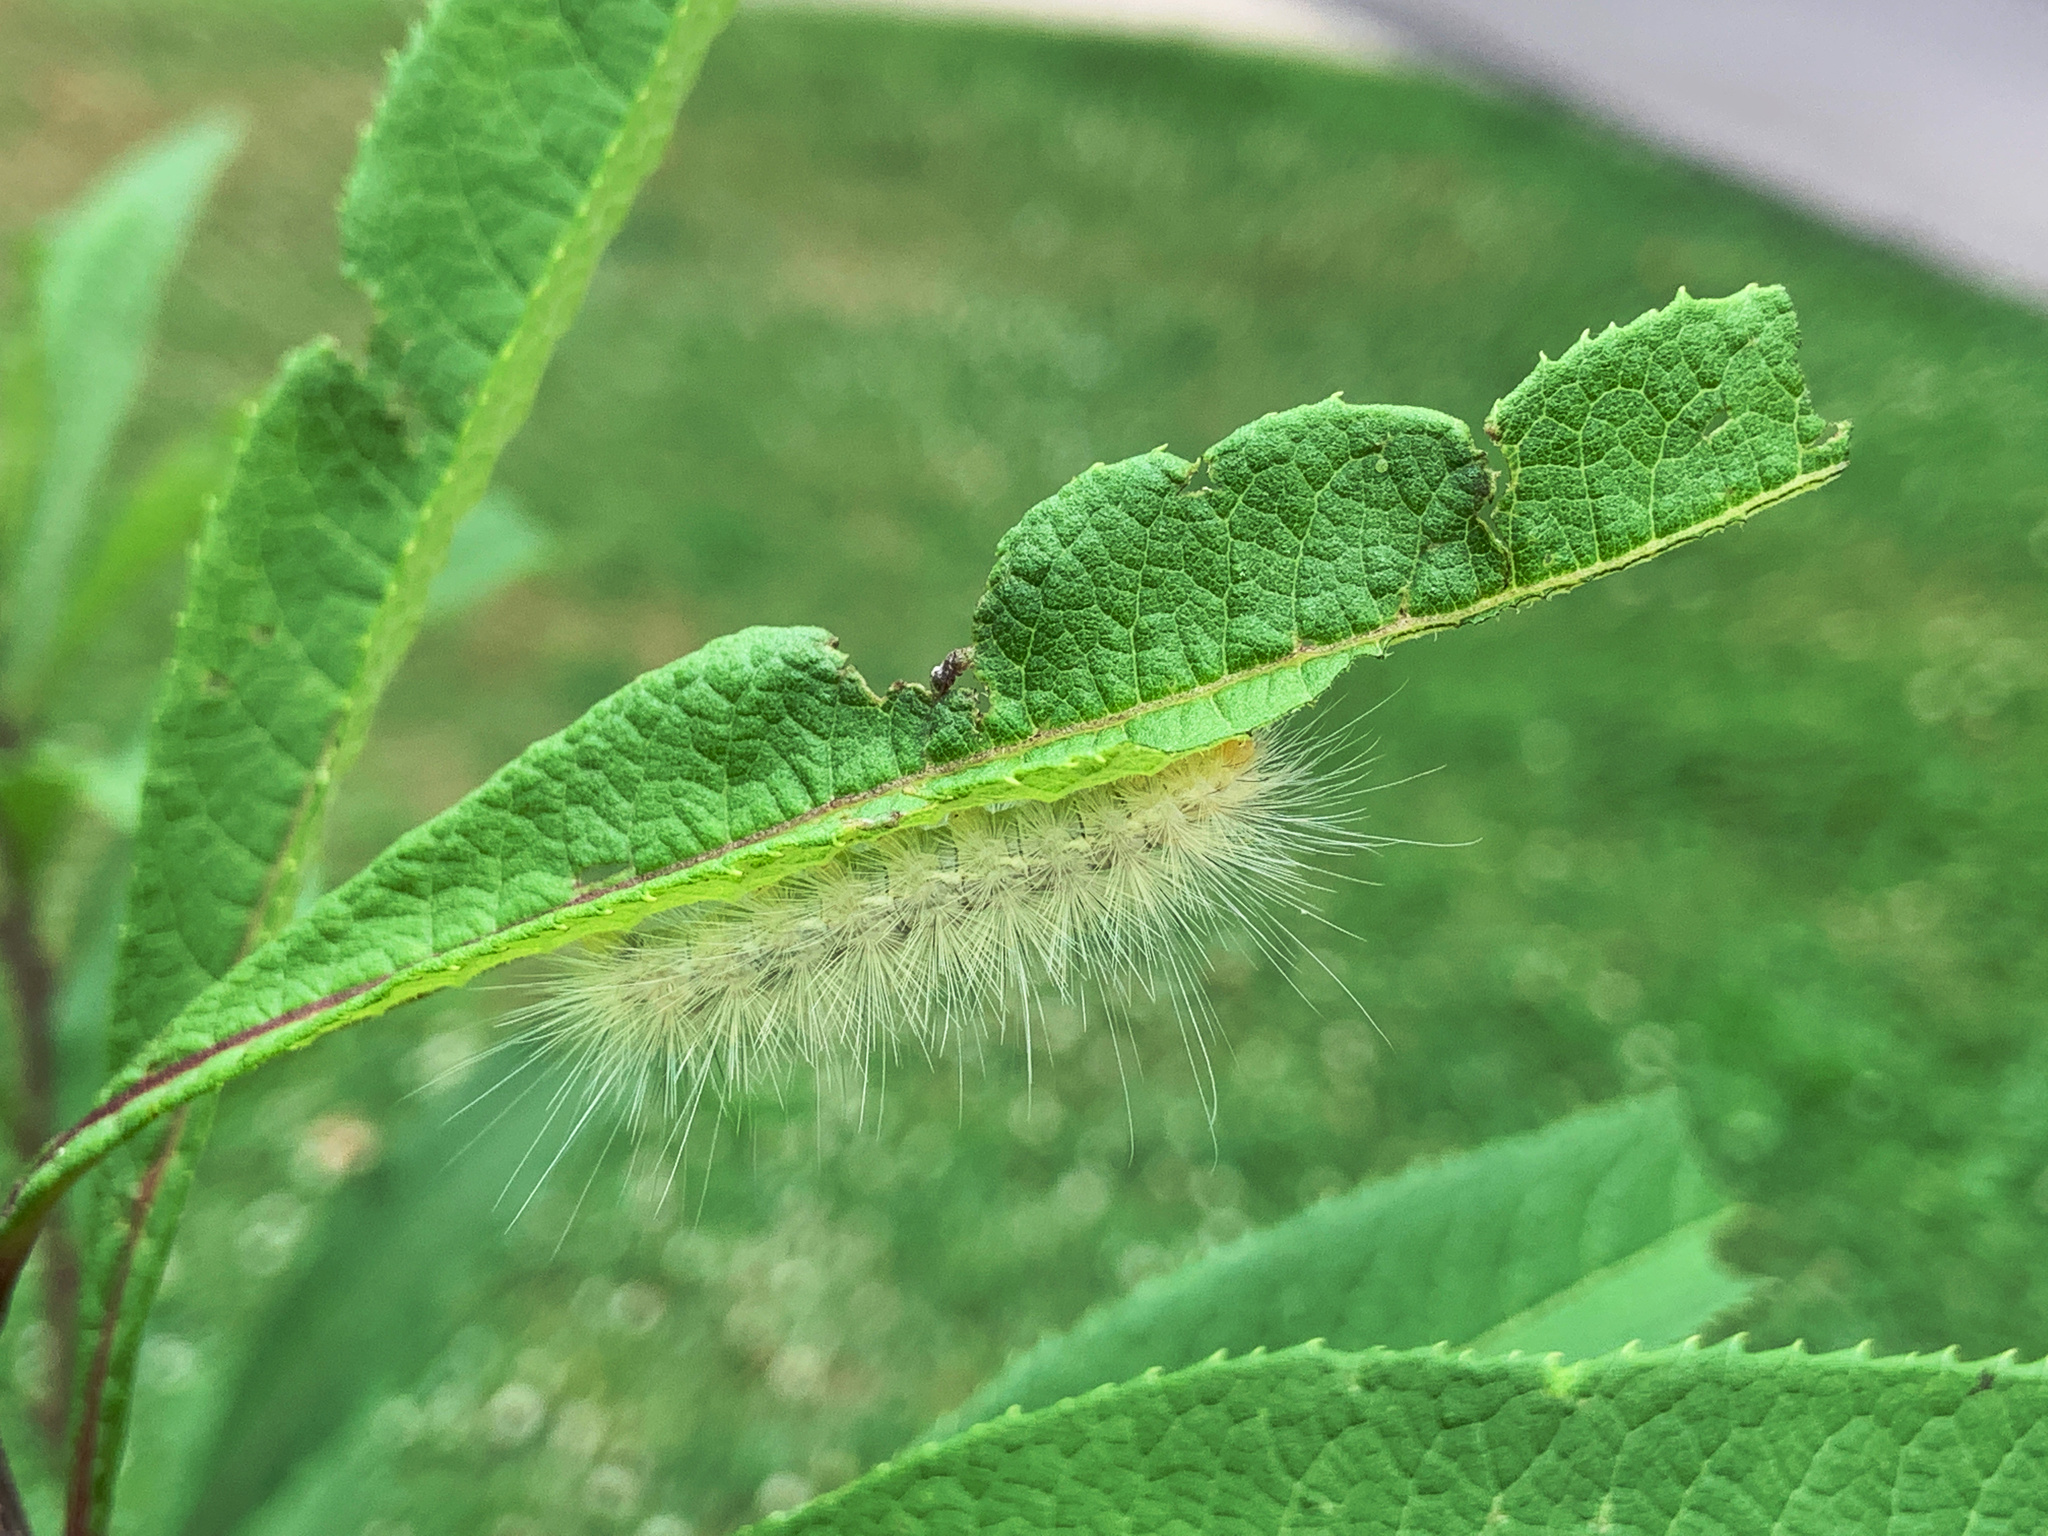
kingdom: Animalia
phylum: Arthropoda
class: Insecta
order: Lepidoptera
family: Erebidae
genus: Spilosoma
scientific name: Spilosoma virginica
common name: Virginia tiger moth
